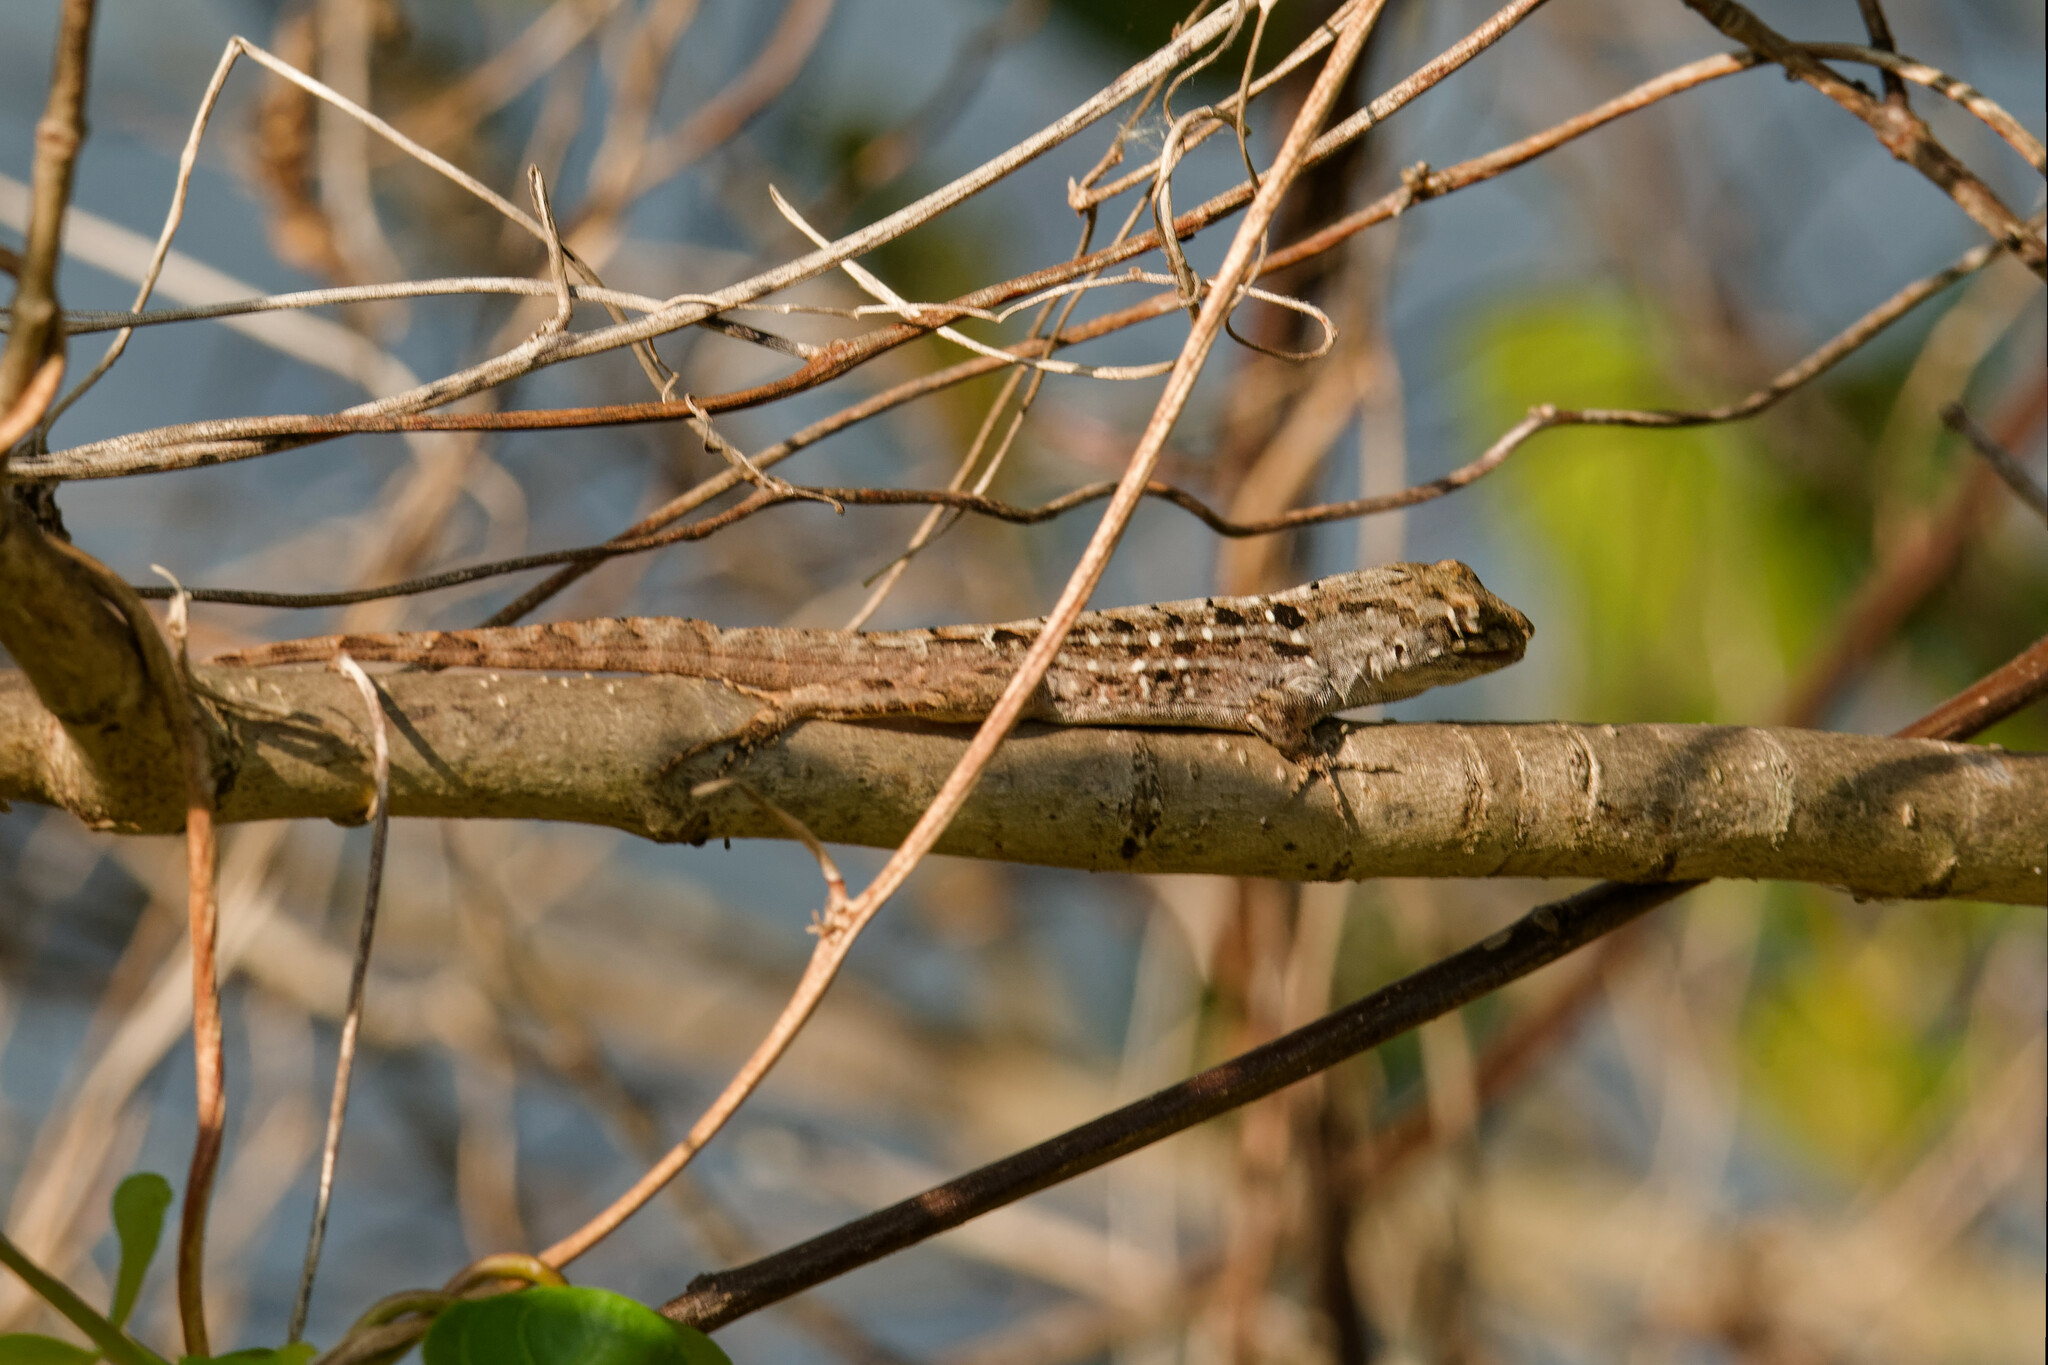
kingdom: Animalia
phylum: Chordata
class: Squamata
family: Dactyloidae
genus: Anolis
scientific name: Anolis sagrei
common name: Brown anole
